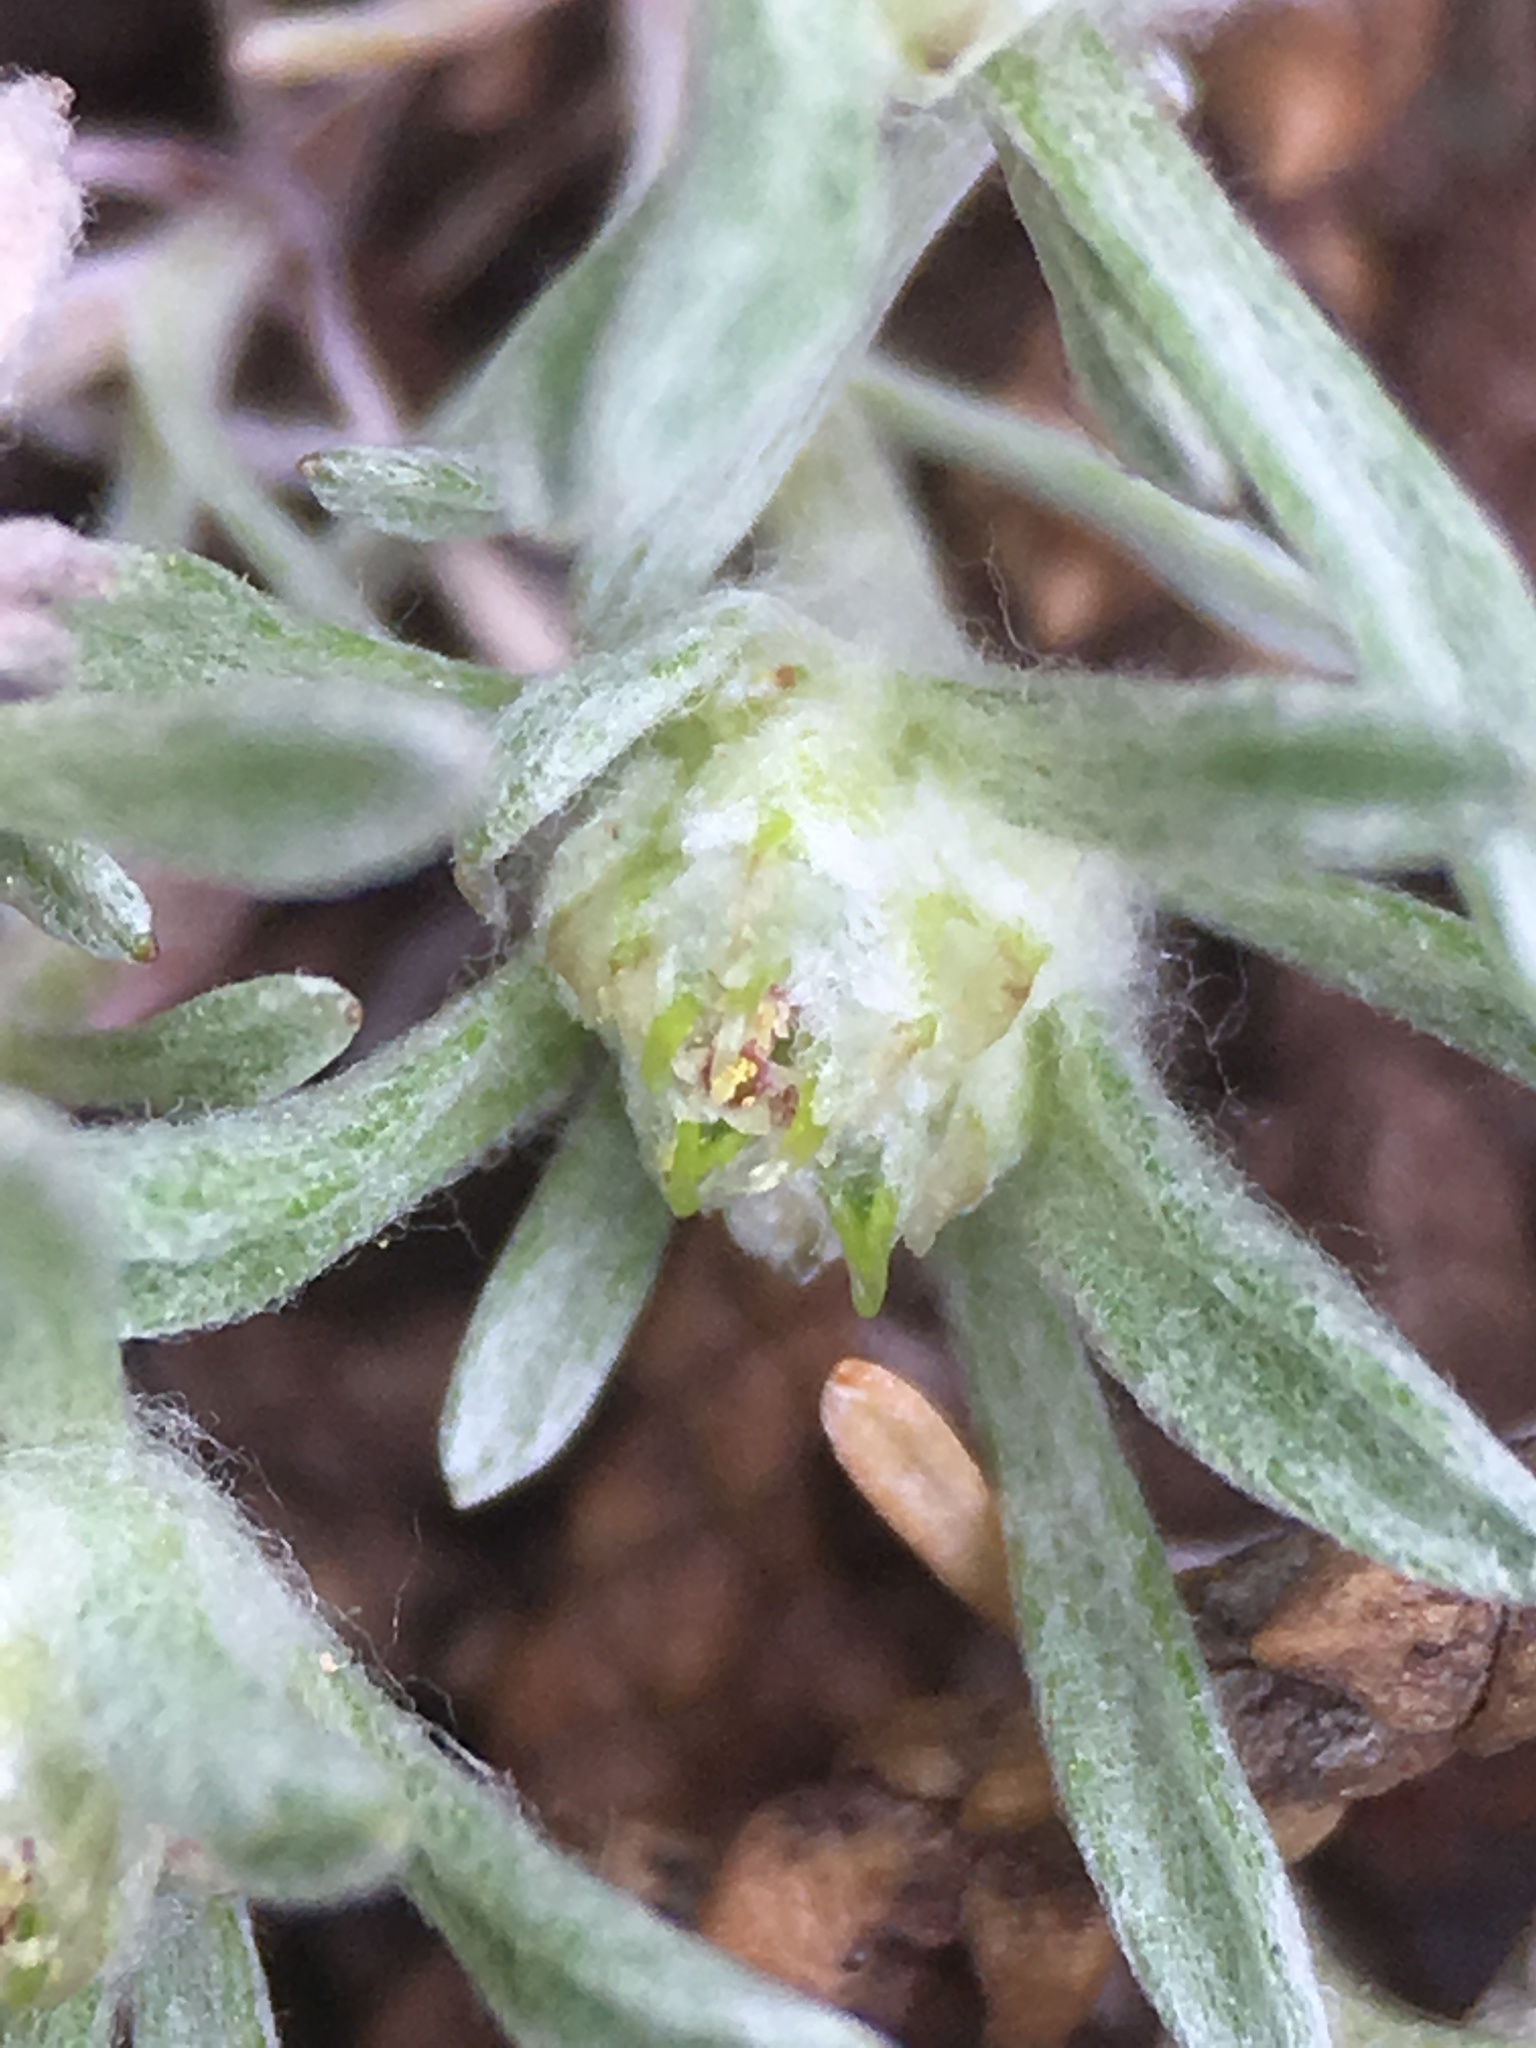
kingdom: Plantae
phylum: Tracheophyta
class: Magnoliopsida
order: Asterales
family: Asteraceae
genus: Ancistrocarphus
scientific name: Ancistrocarphus filagineus
